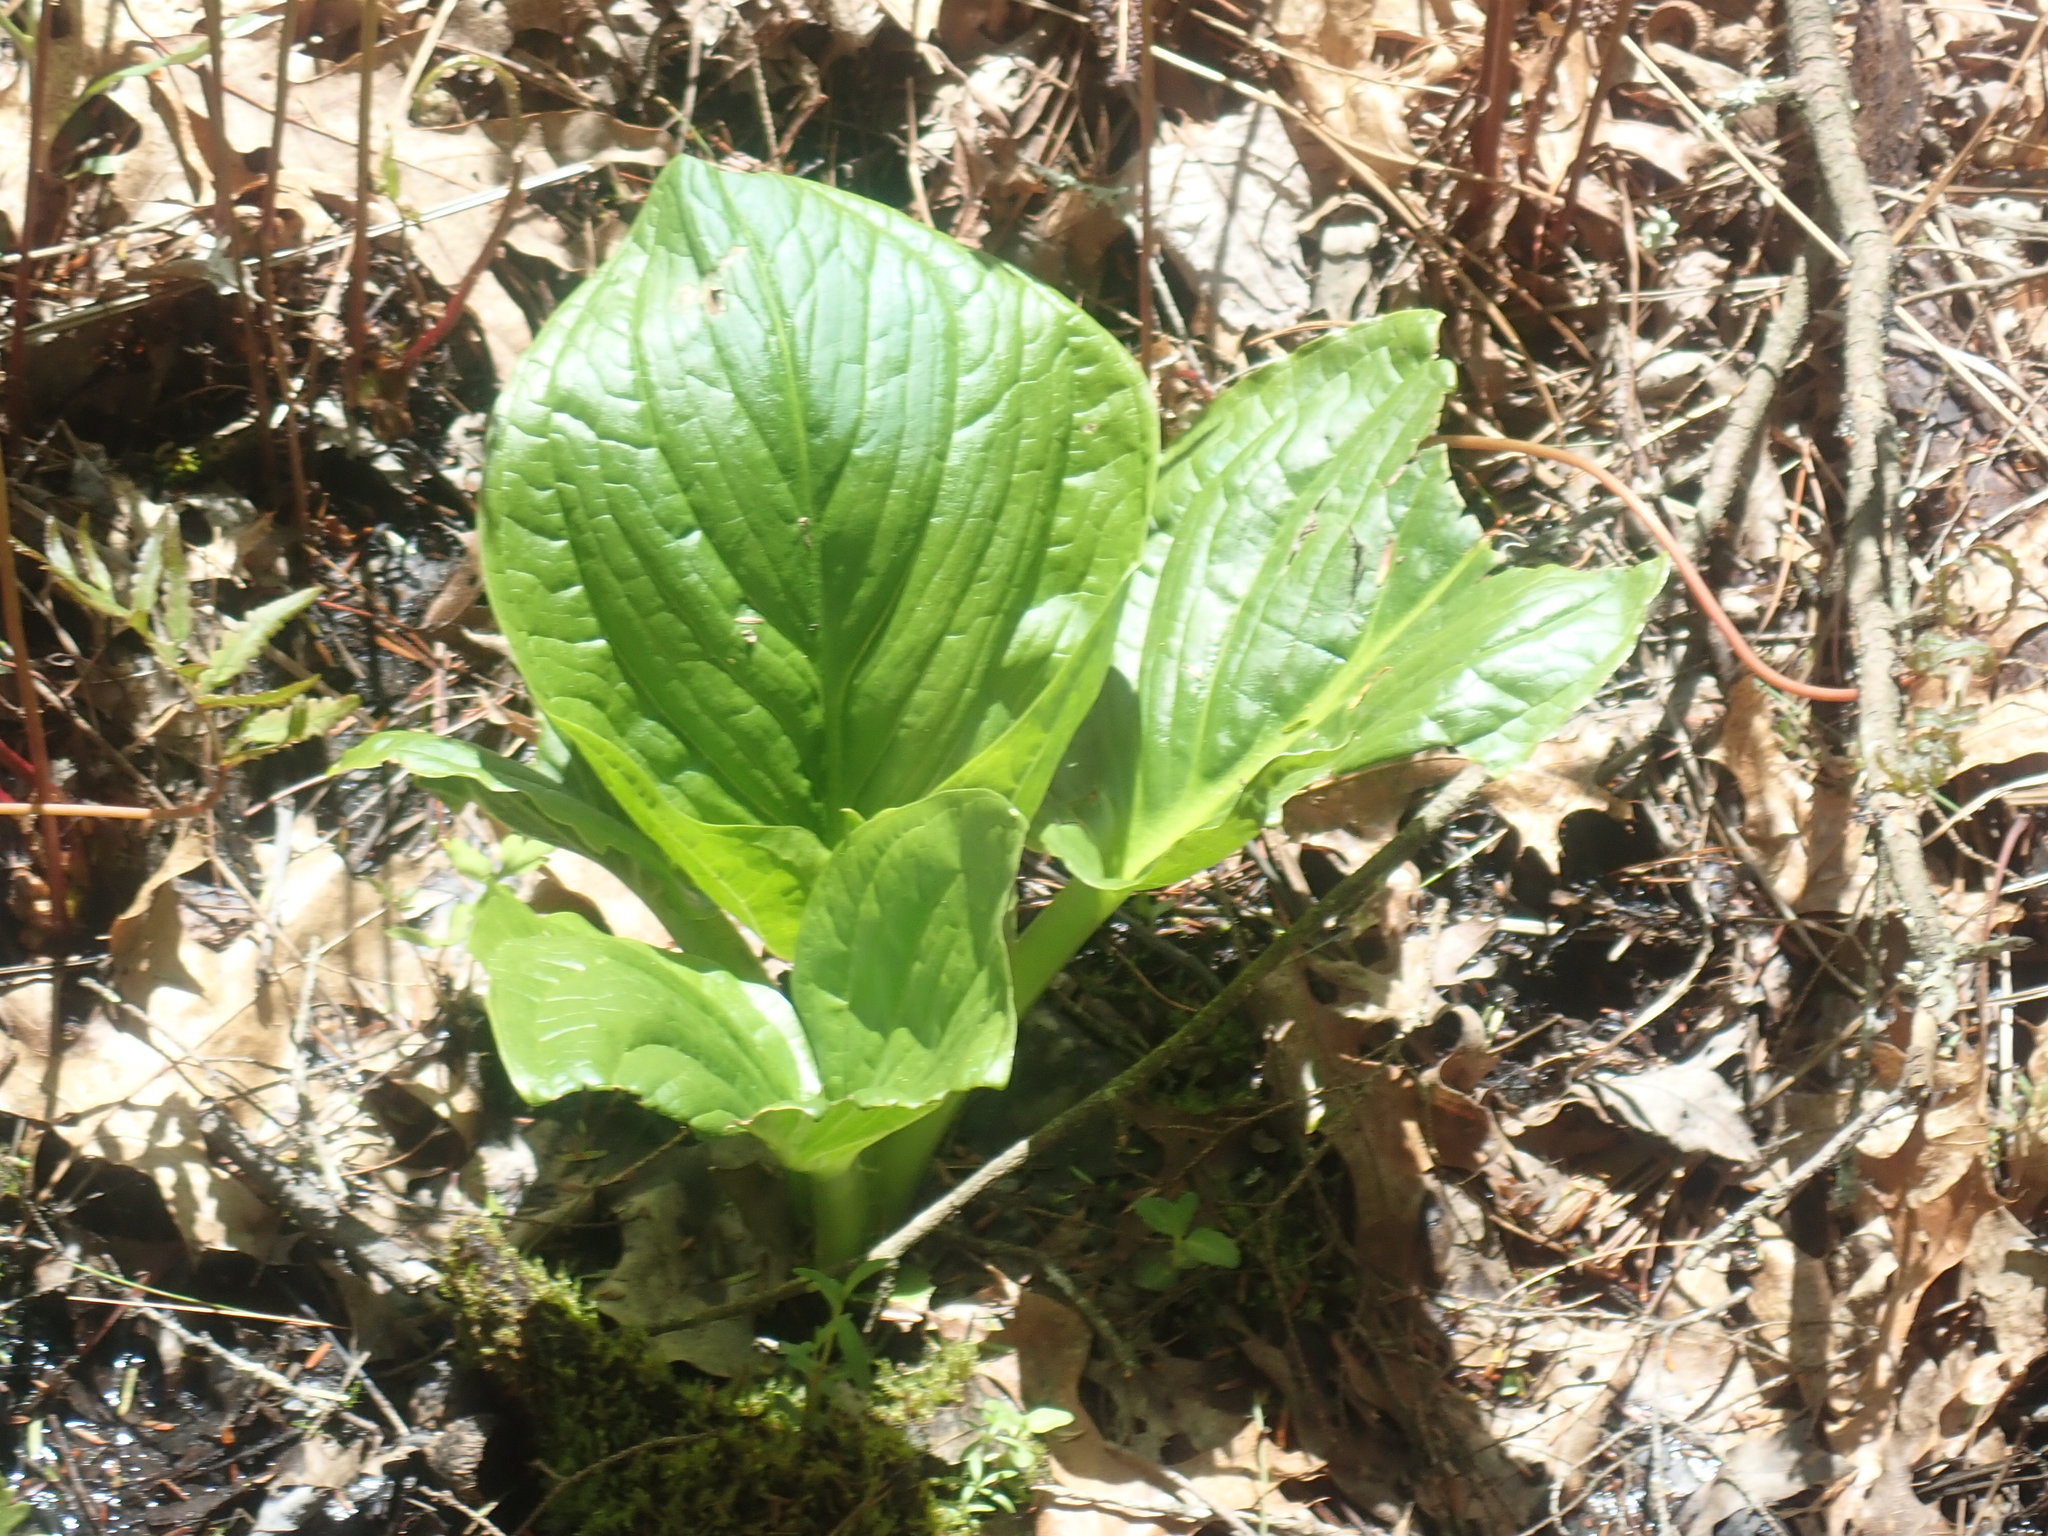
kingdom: Plantae
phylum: Tracheophyta
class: Liliopsida
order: Alismatales
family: Araceae
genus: Symplocarpus
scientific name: Symplocarpus foetidus
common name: Eastern skunk cabbage
